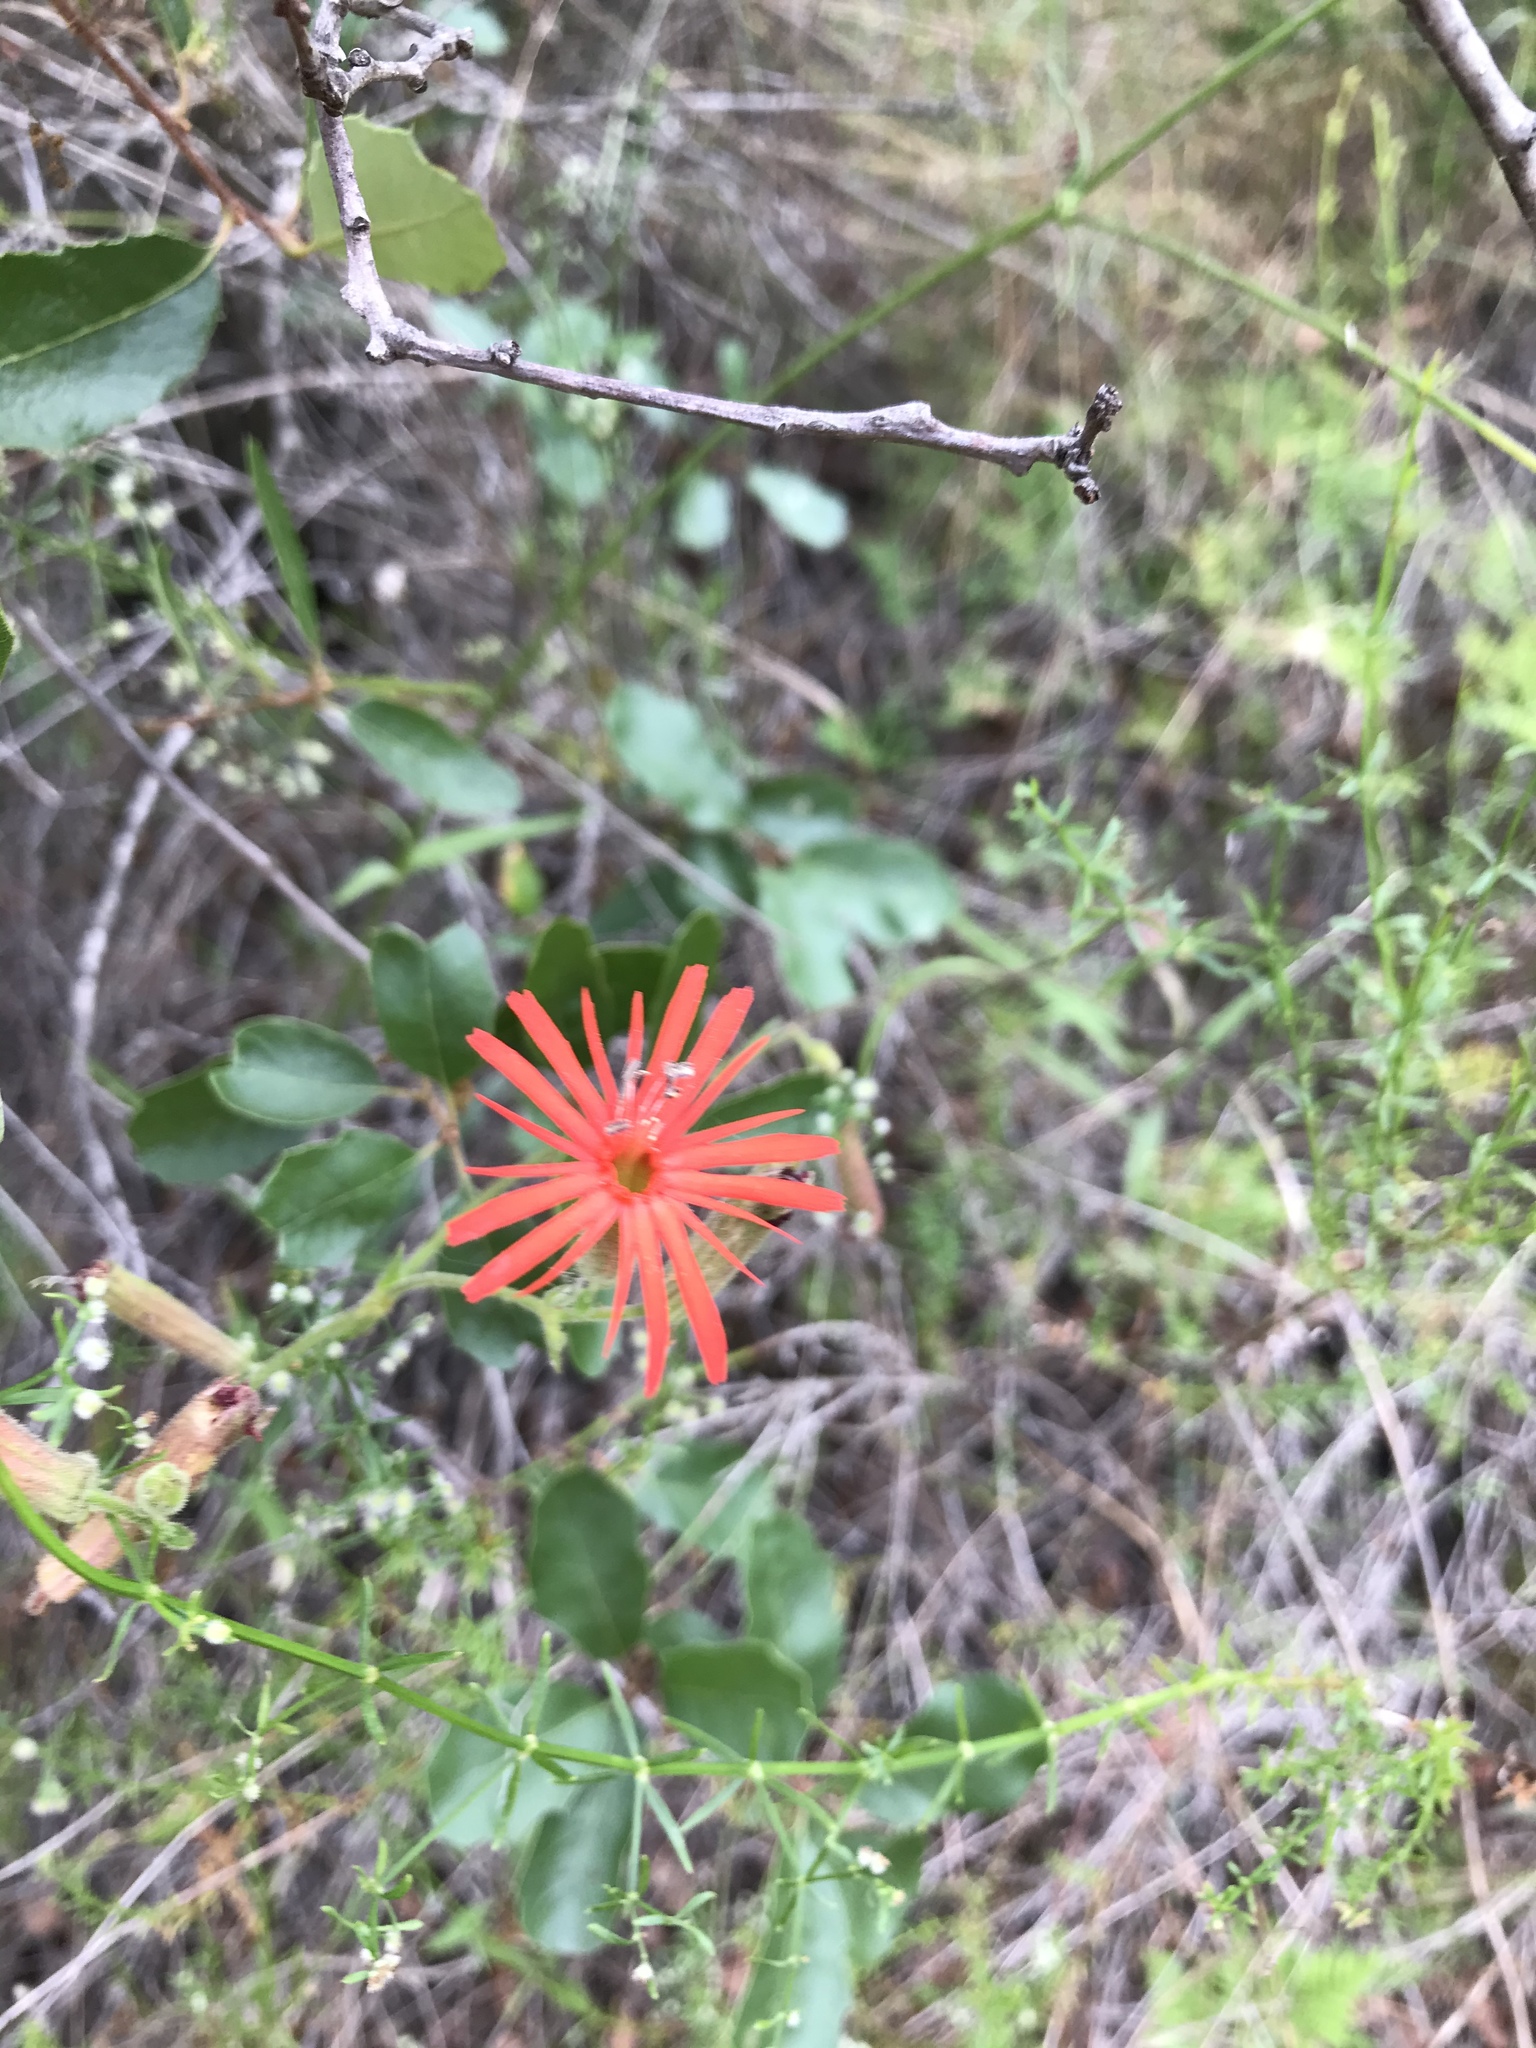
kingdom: Plantae
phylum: Tracheophyta
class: Magnoliopsida
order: Caryophyllales
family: Caryophyllaceae
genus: Silene
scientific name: Silene laciniata
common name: Indian-pink
